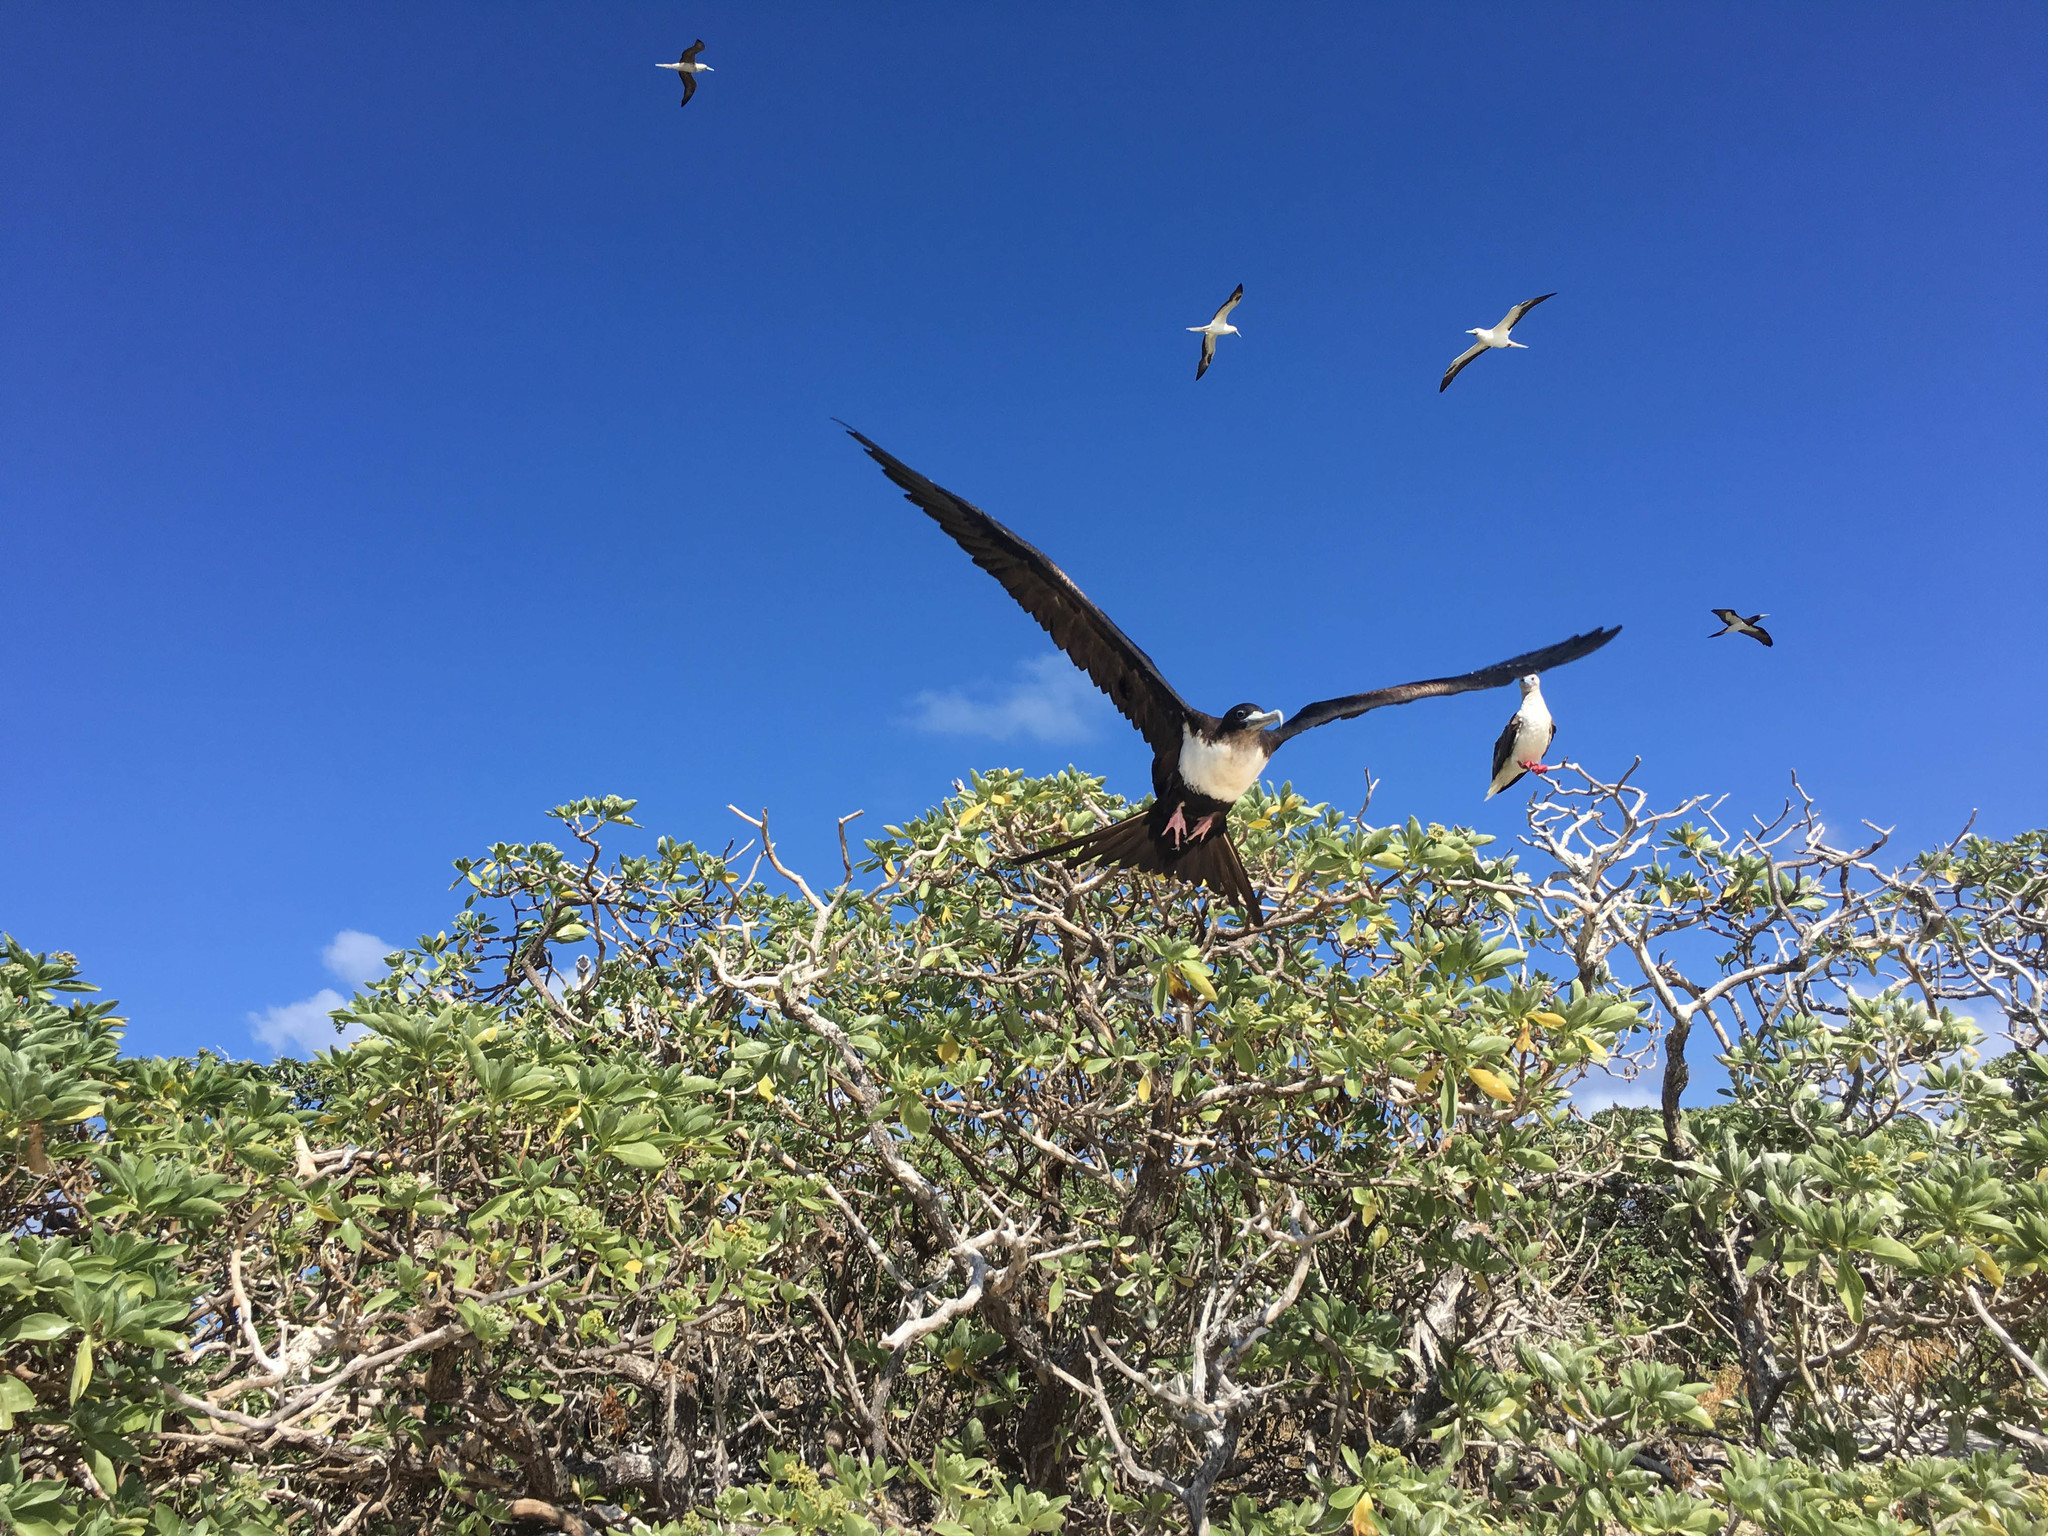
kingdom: Animalia
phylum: Chordata
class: Aves
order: Suliformes
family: Fregatidae
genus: Fregata
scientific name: Fregata minor
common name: Great frigatebird
